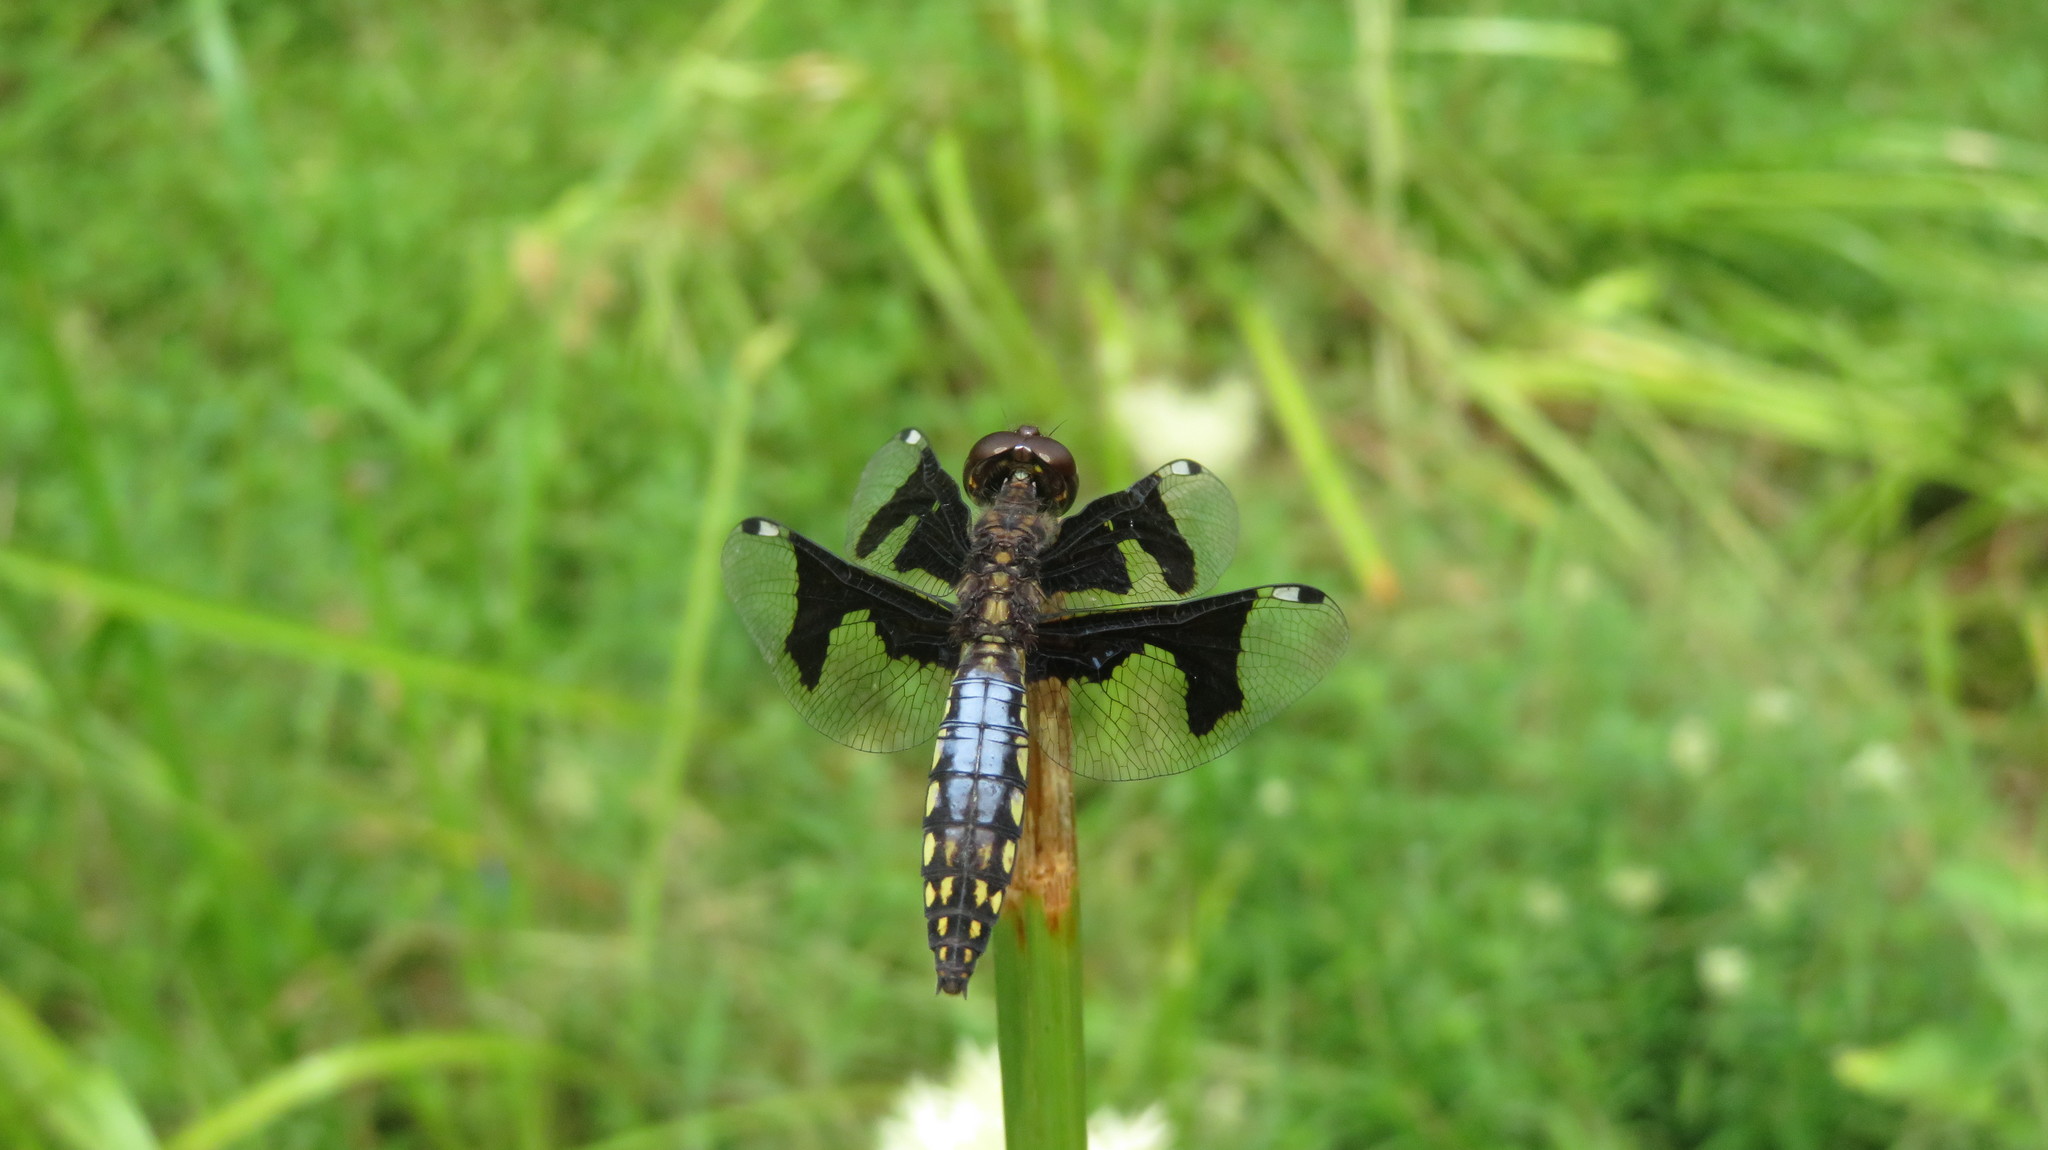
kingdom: Animalia
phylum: Arthropoda
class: Insecta
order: Odonata
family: Libellulidae
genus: Palpopleura
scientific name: Palpopleura lucia
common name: Lucia widow
